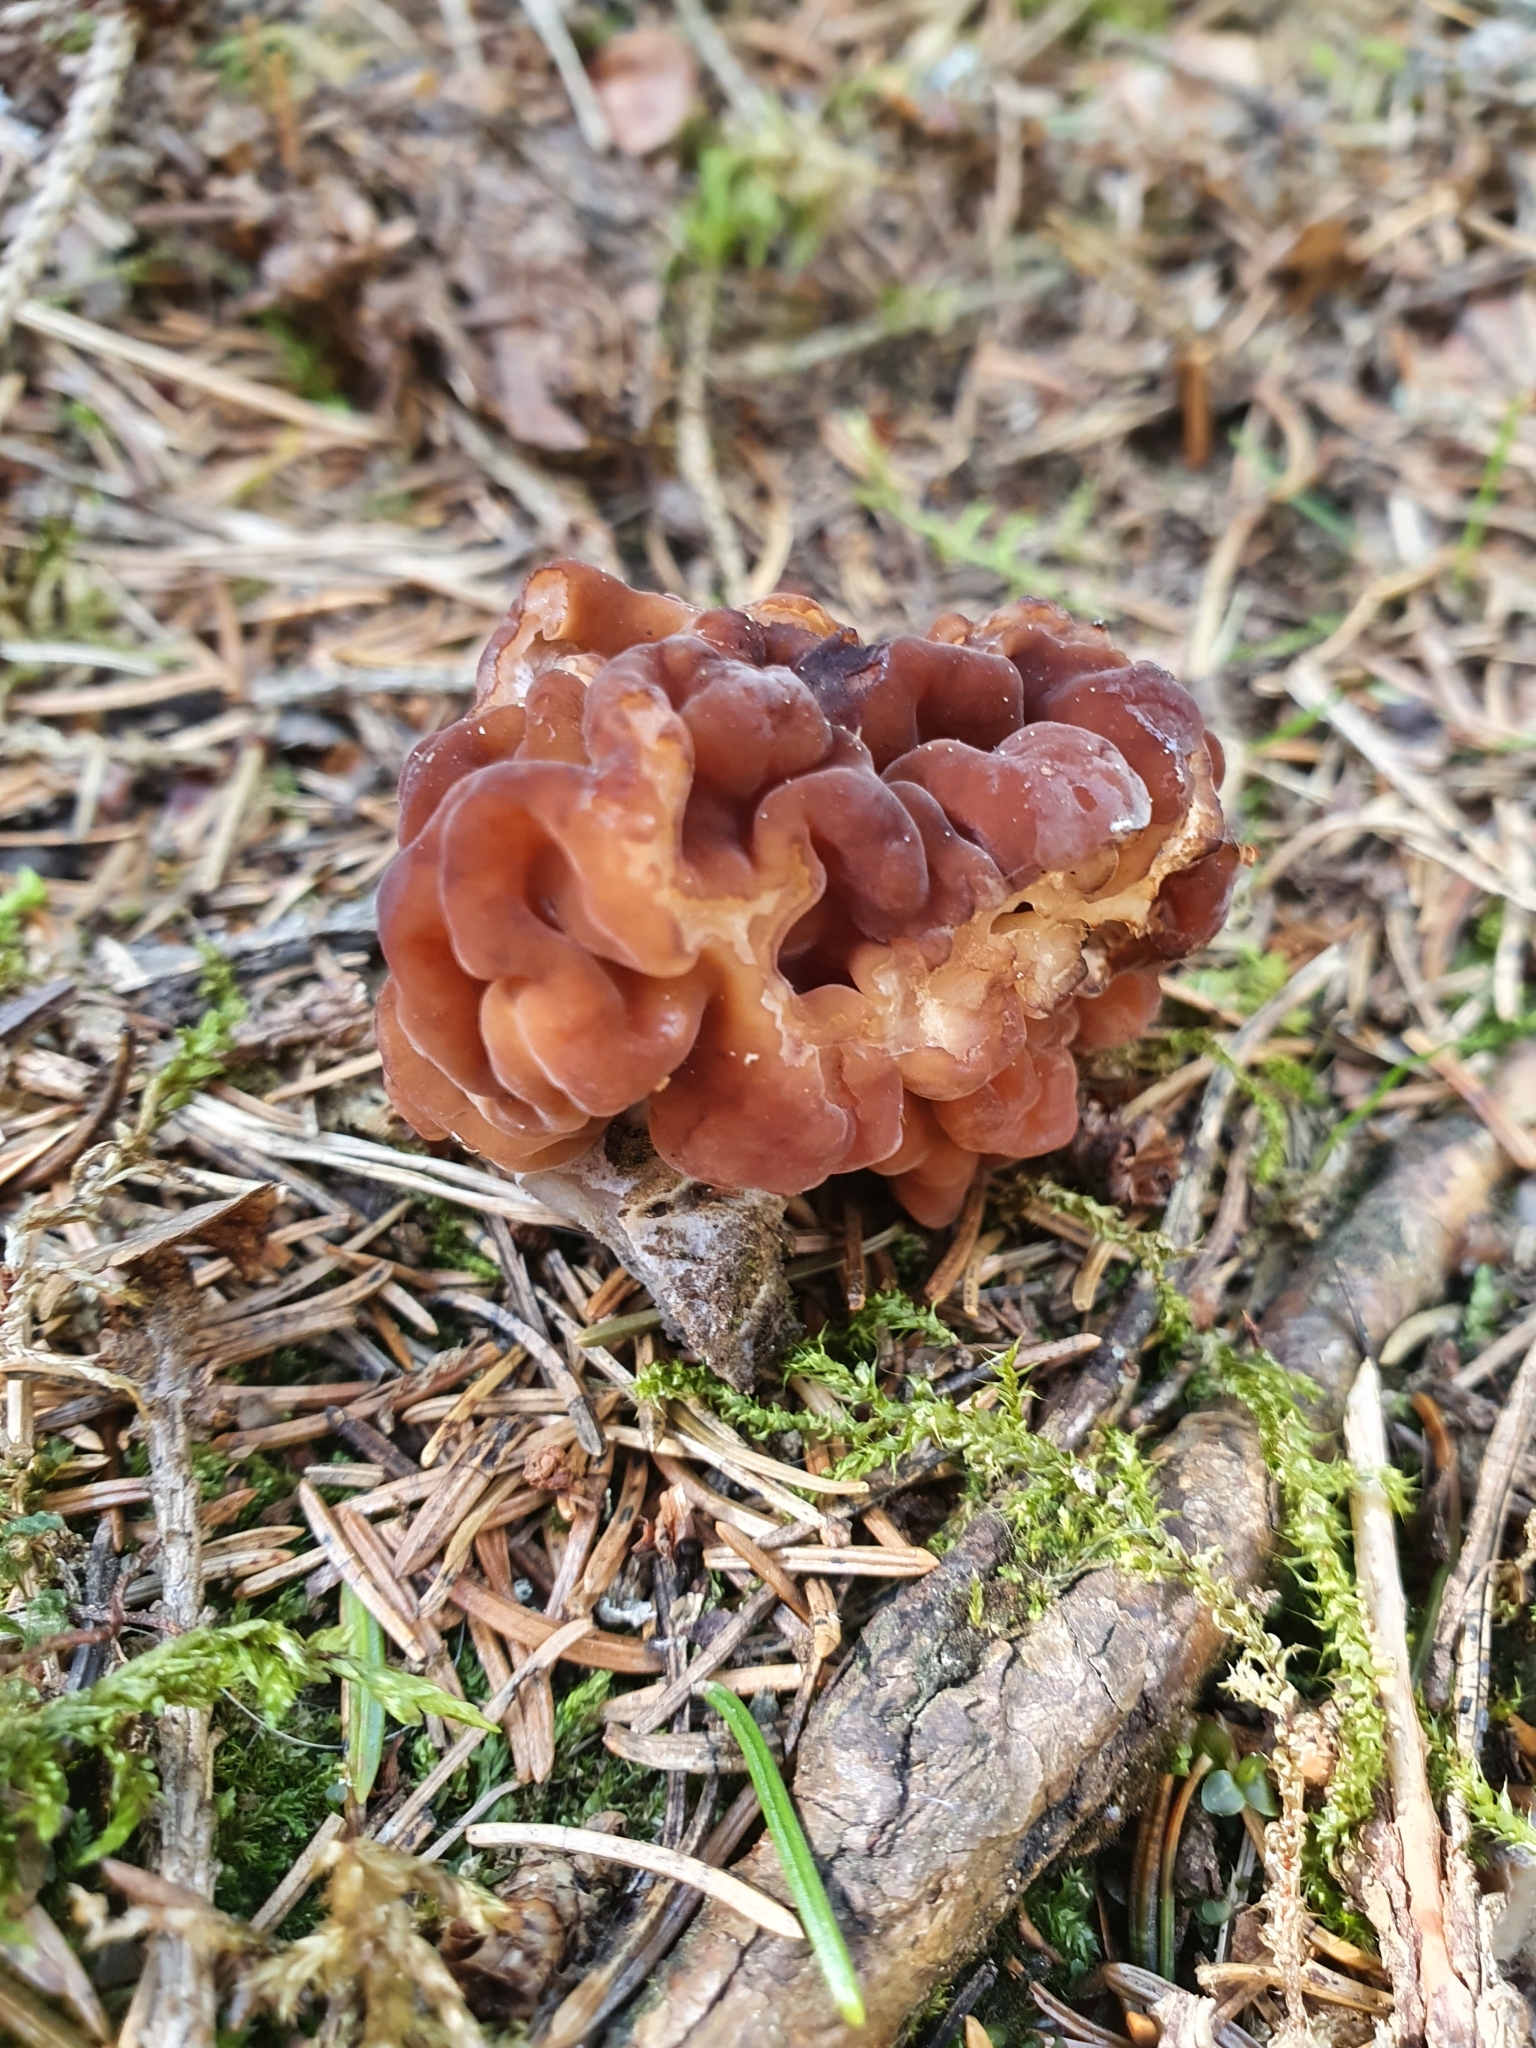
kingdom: Fungi
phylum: Ascomycota
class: Pezizomycetes
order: Pezizales
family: Discinaceae
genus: Gyromitra
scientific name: Gyromitra esculenta
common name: False morel
